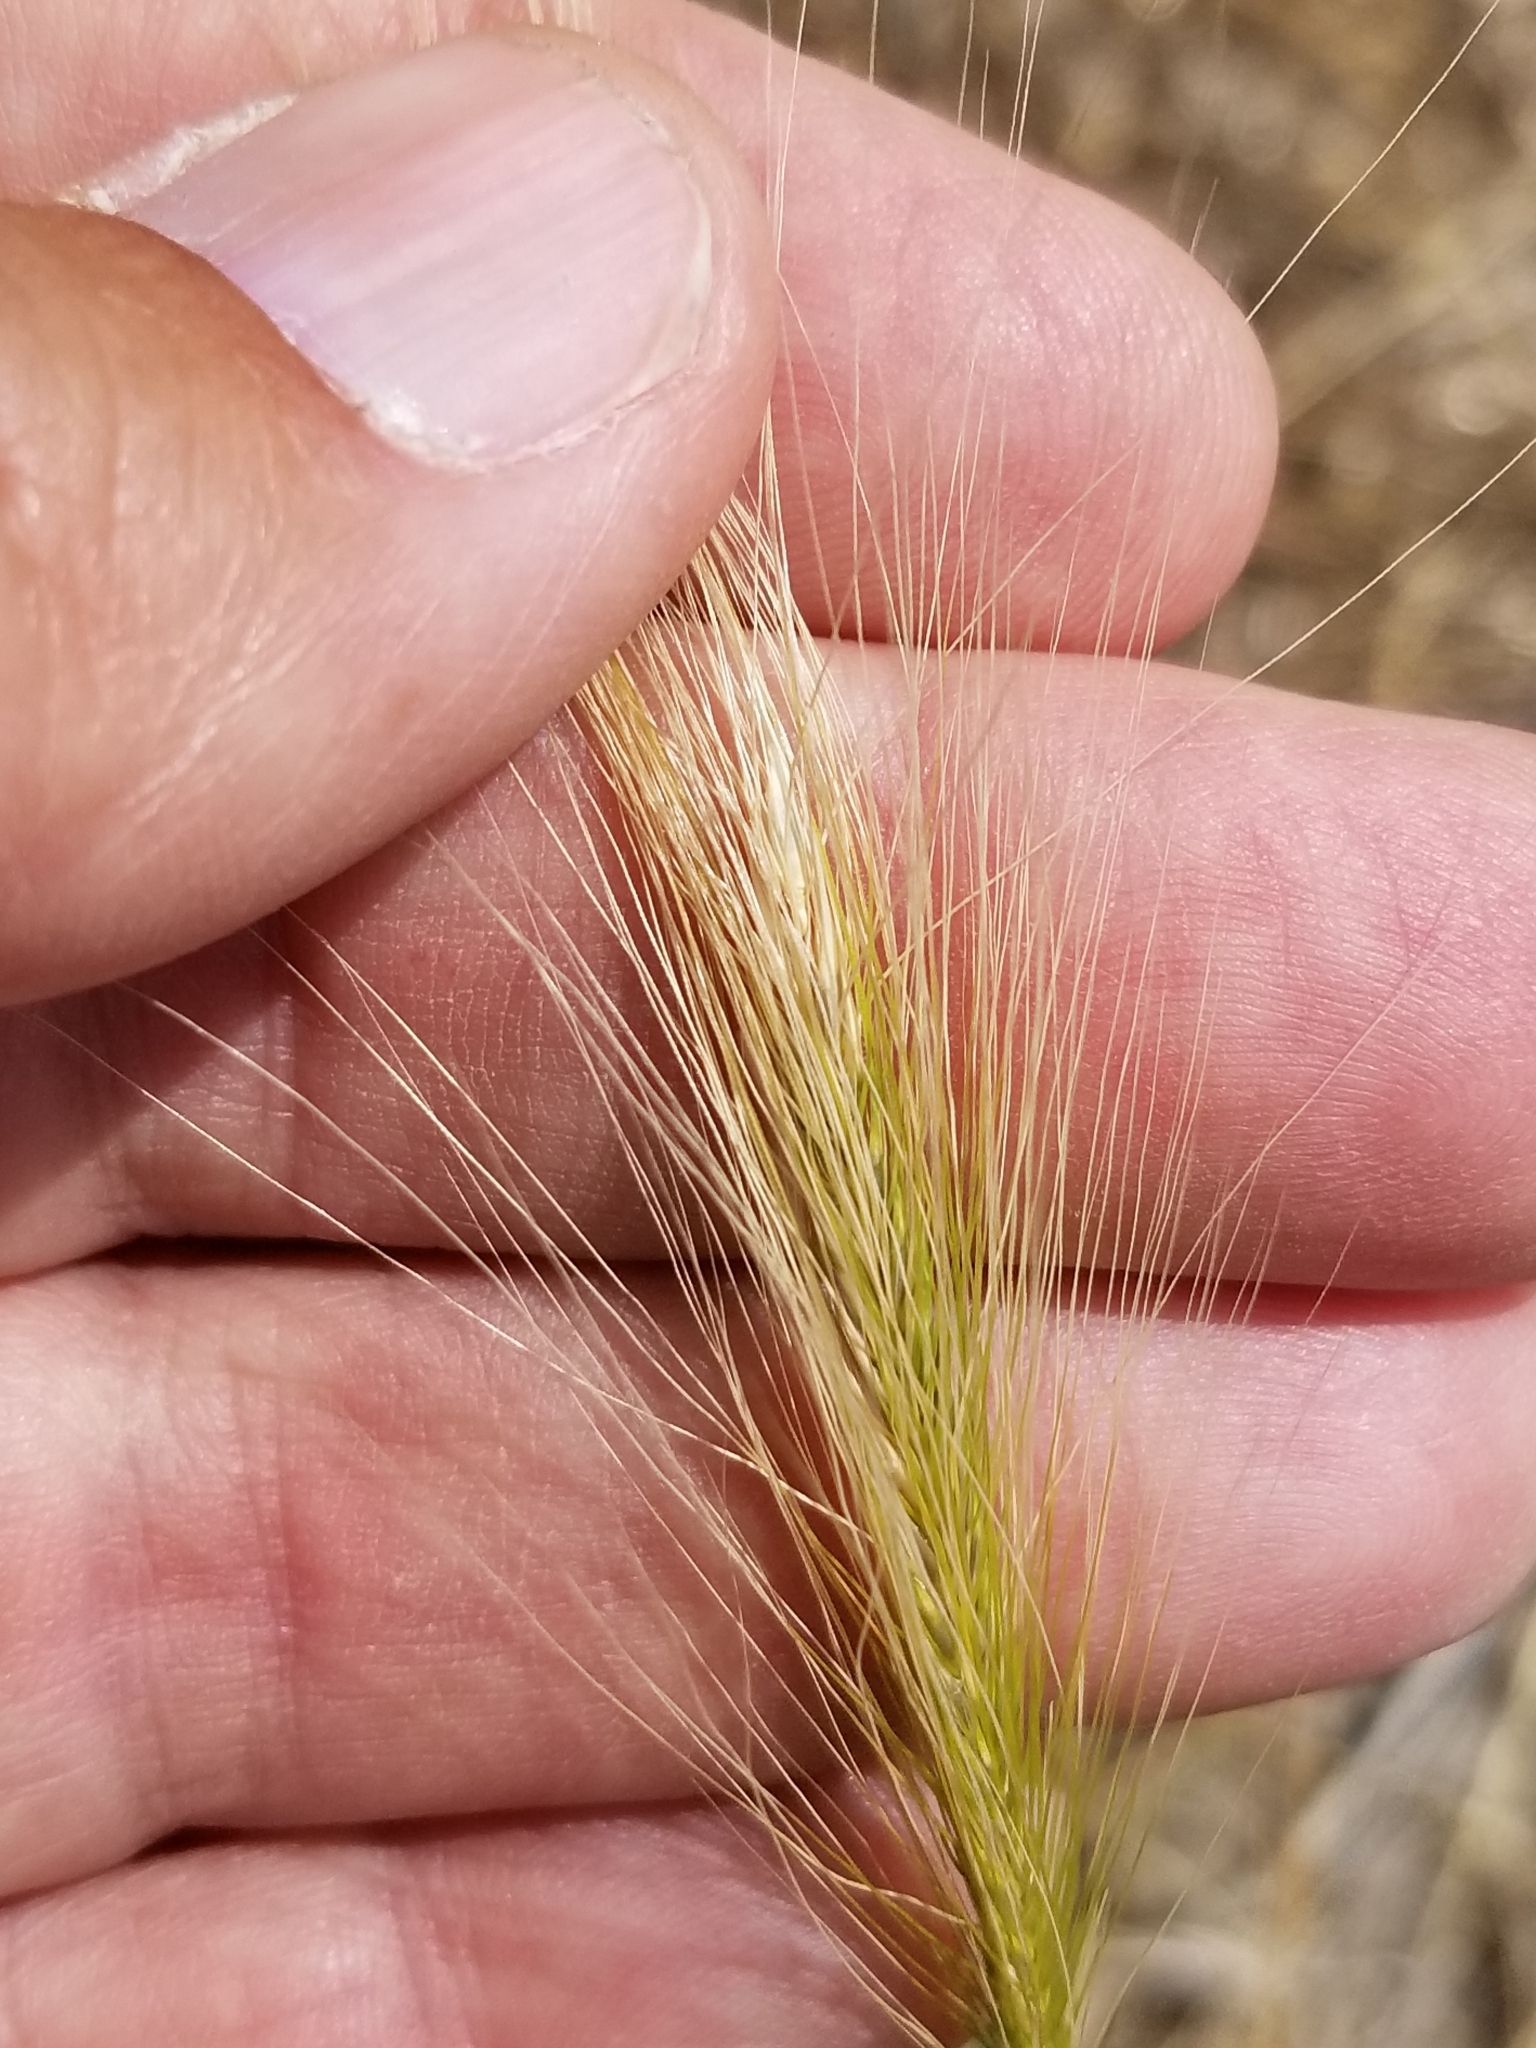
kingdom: Plantae
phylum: Tracheophyta
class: Liliopsida
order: Poales
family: Poaceae
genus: Hordeum
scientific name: Hordeum jubatum
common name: Foxtail barley
